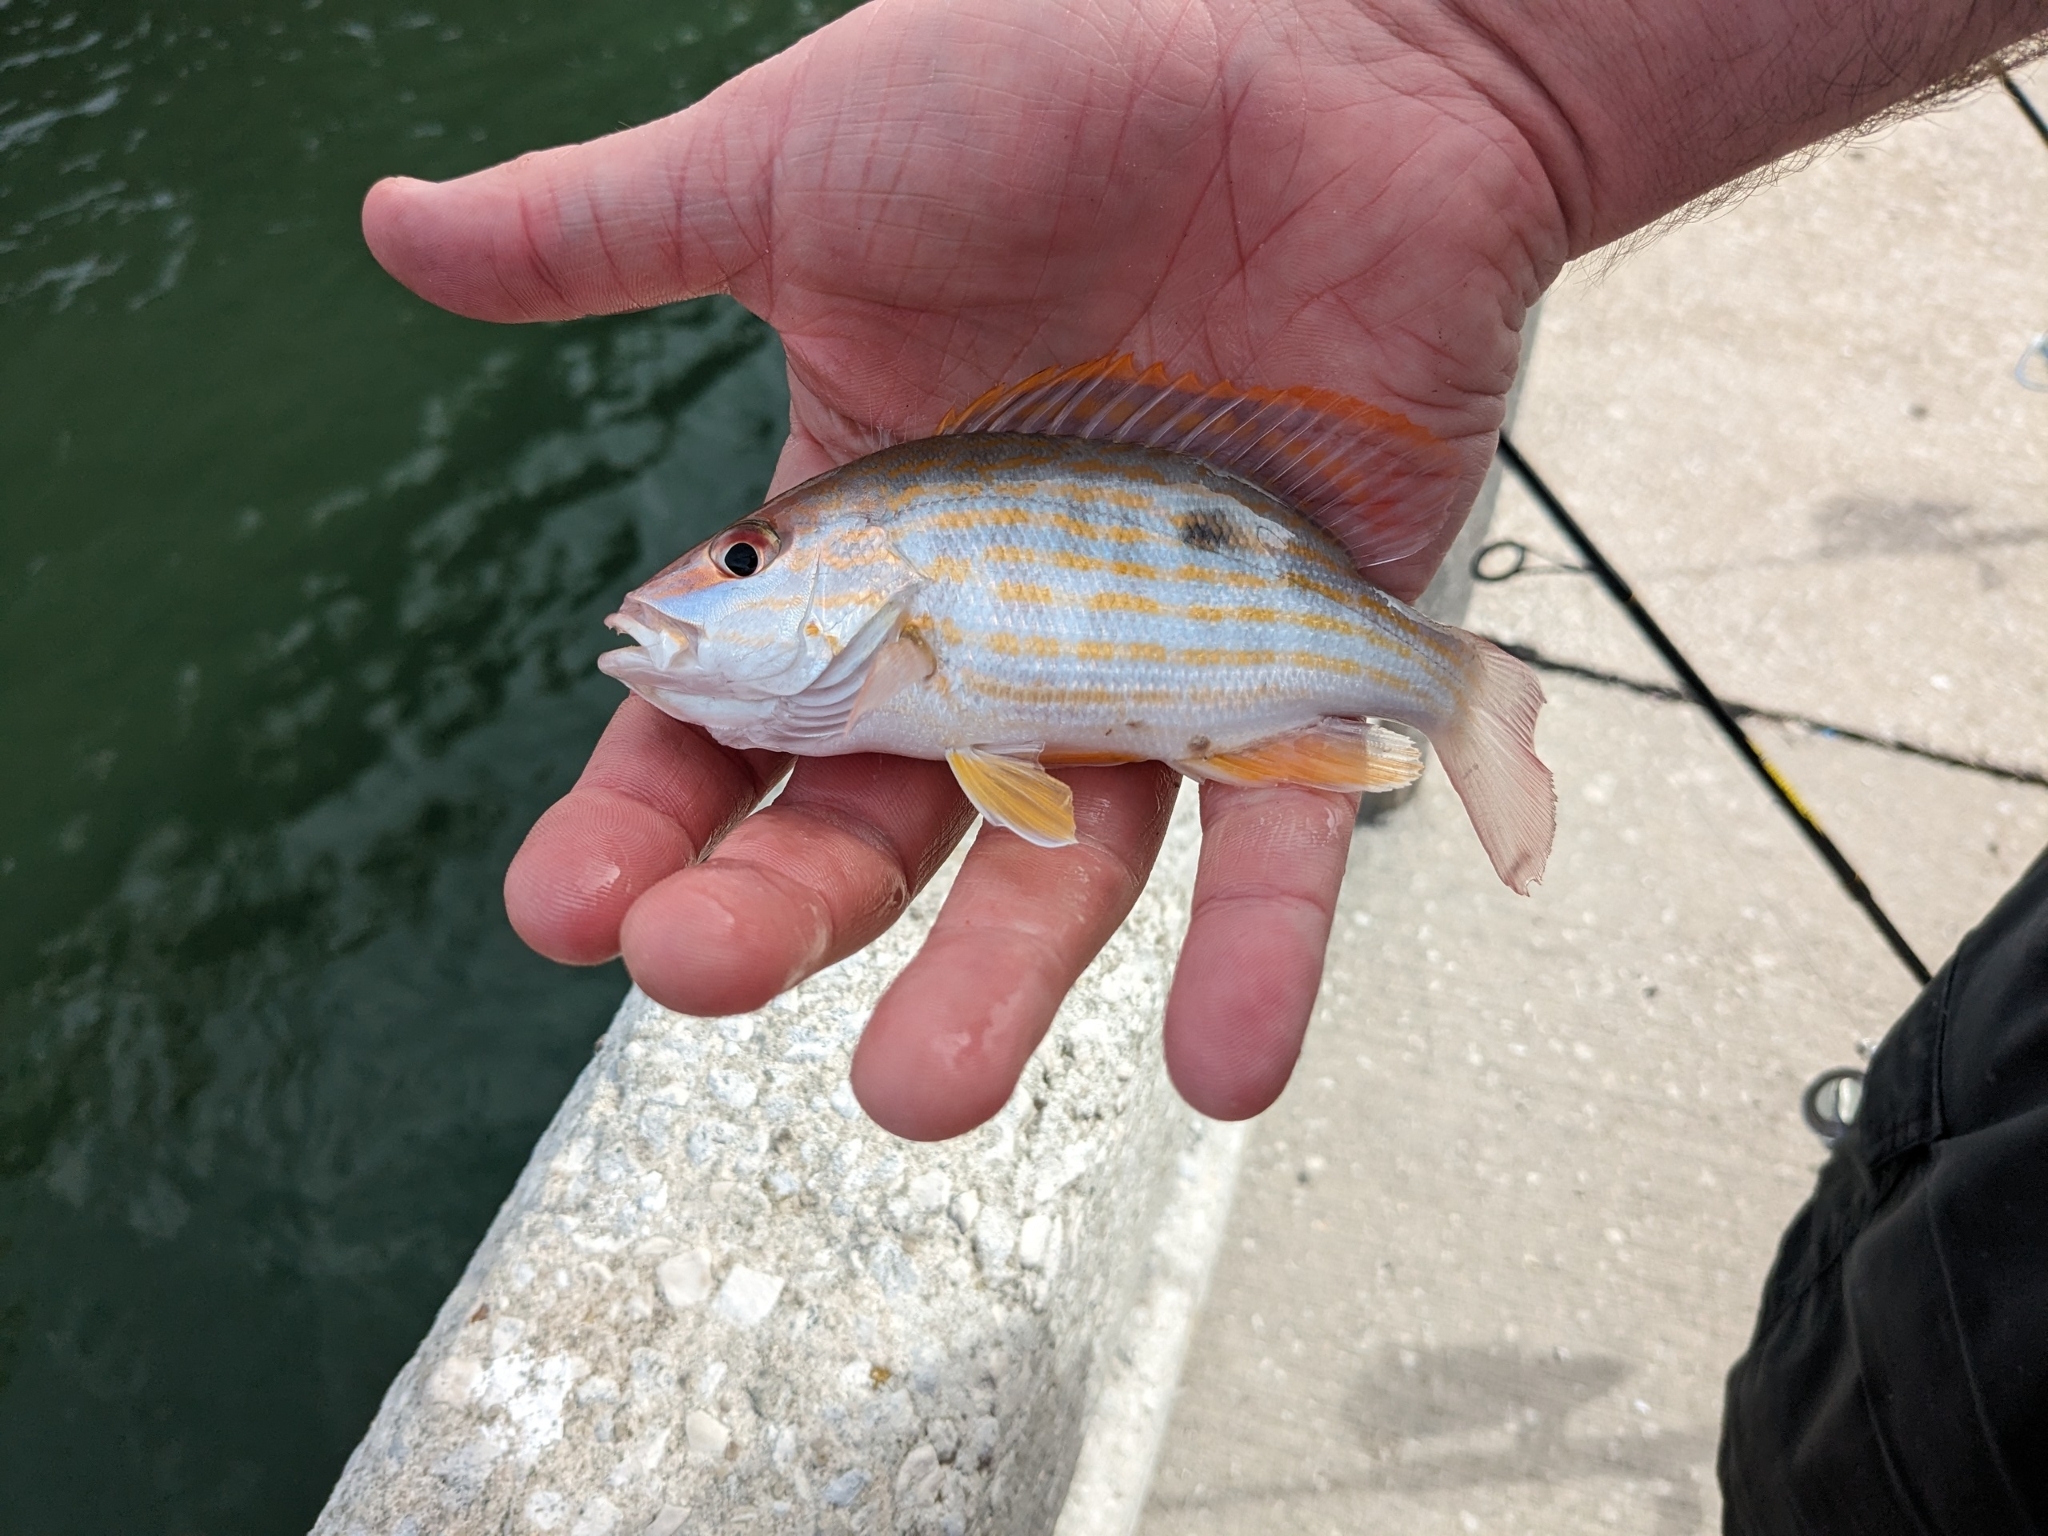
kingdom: Animalia
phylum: Chordata
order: Perciformes
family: Lutjanidae
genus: Lutjanus
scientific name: Lutjanus synagris
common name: Lane snapper
